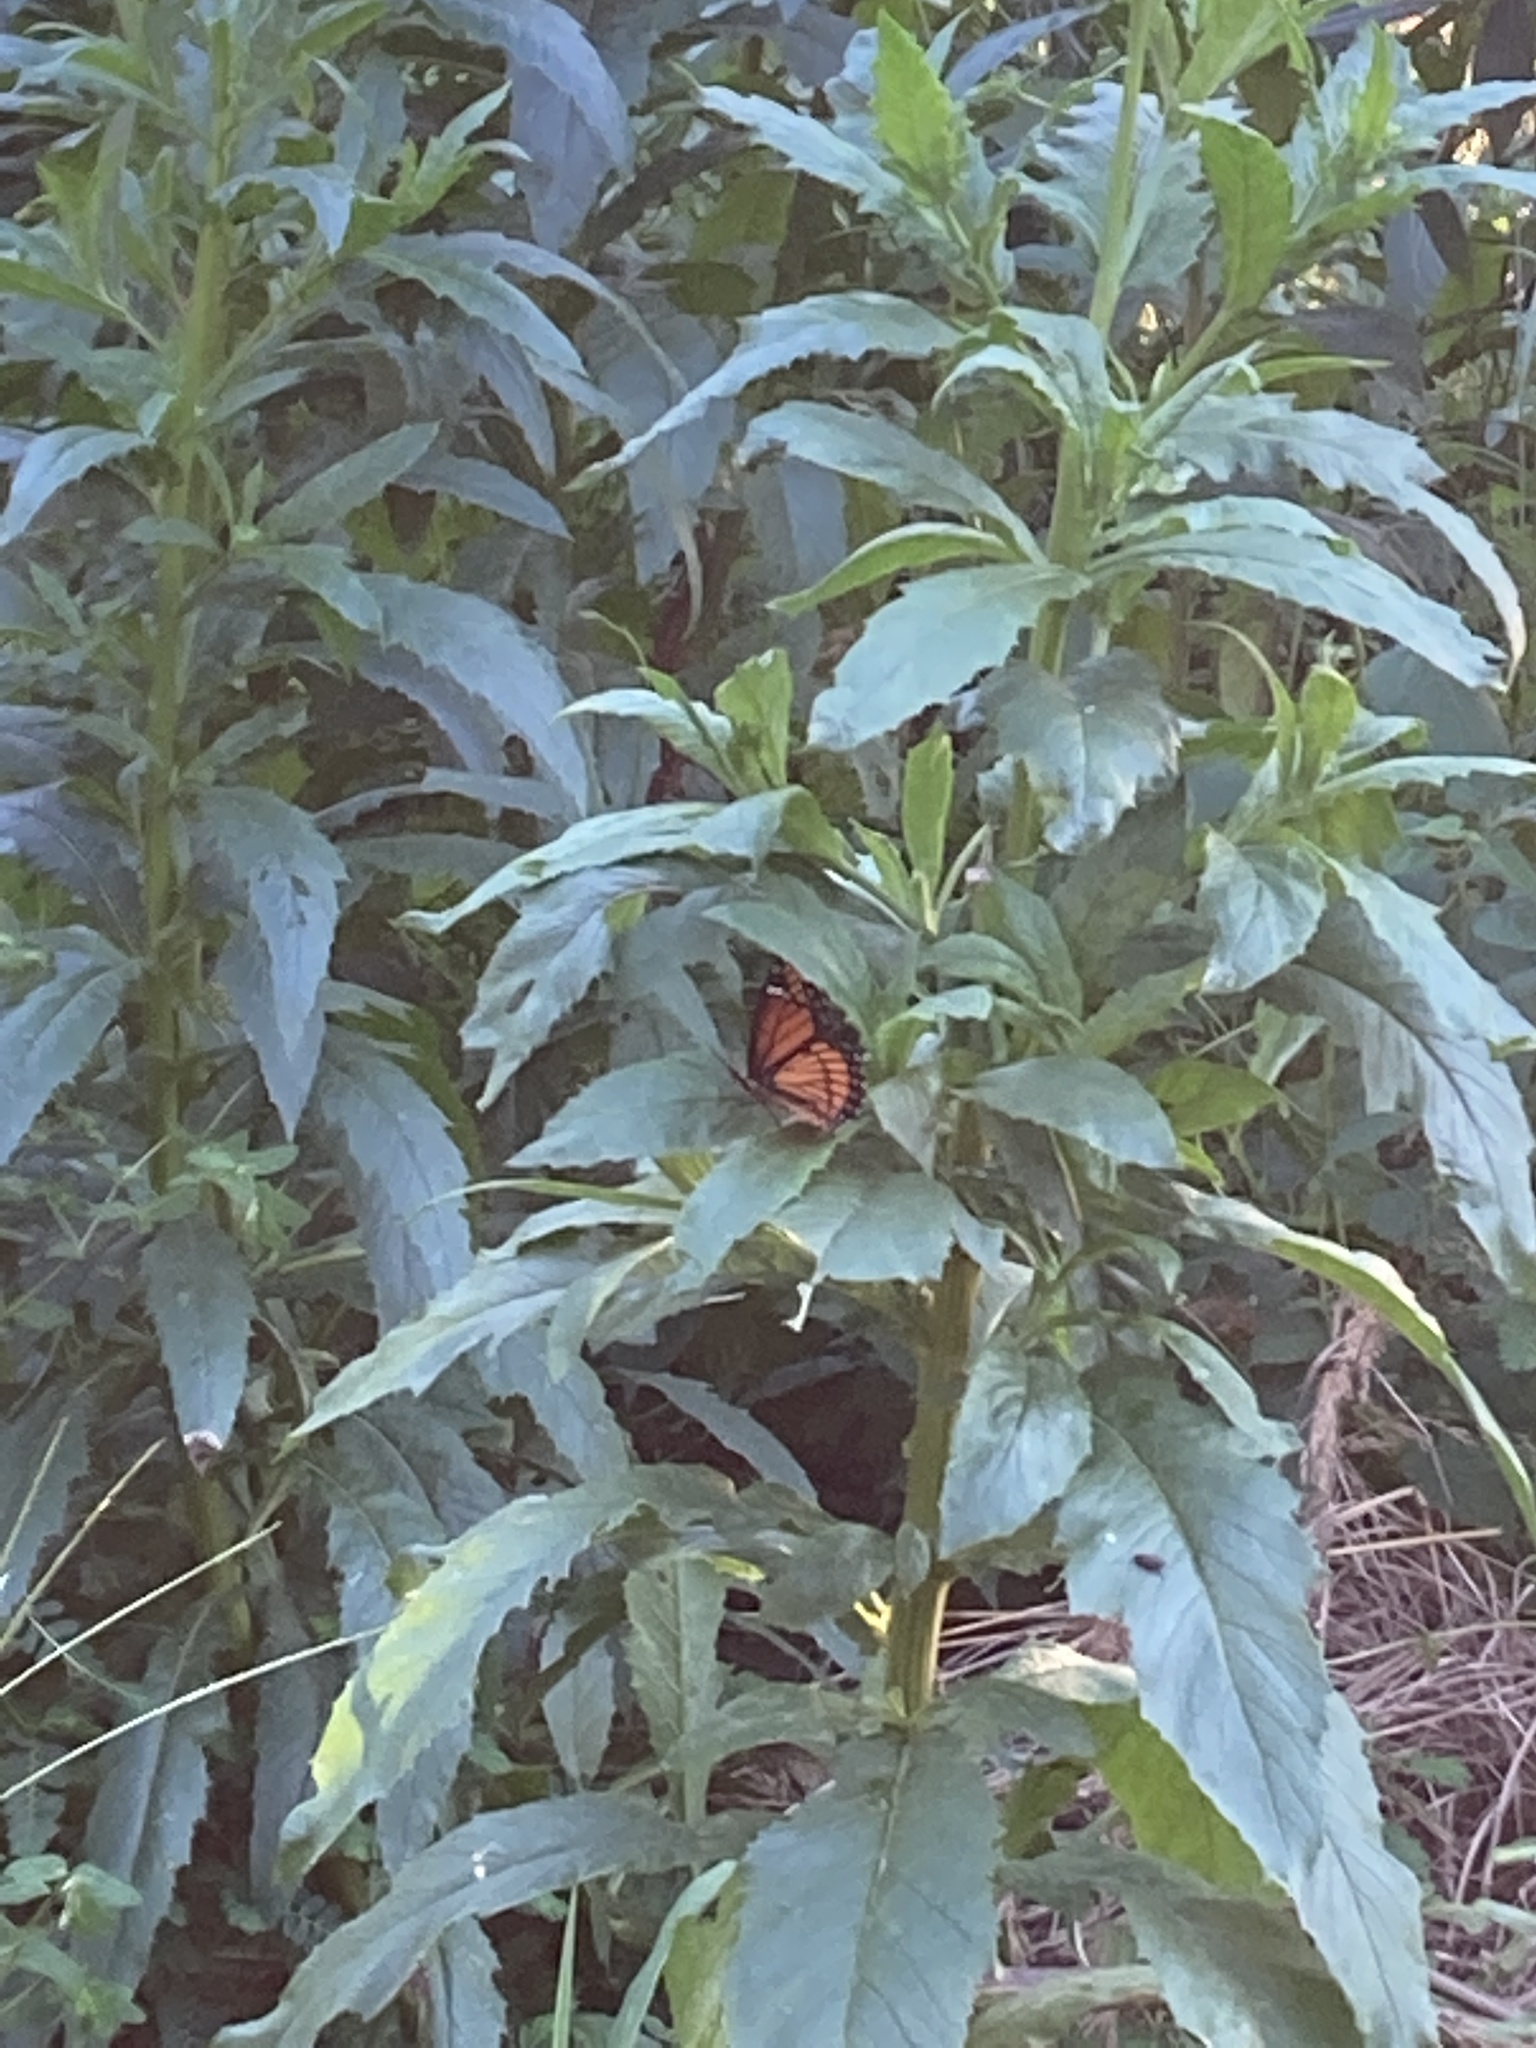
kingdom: Animalia
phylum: Arthropoda
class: Insecta
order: Lepidoptera
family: Nymphalidae
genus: Limenitis
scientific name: Limenitis archippus
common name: Viceroy
